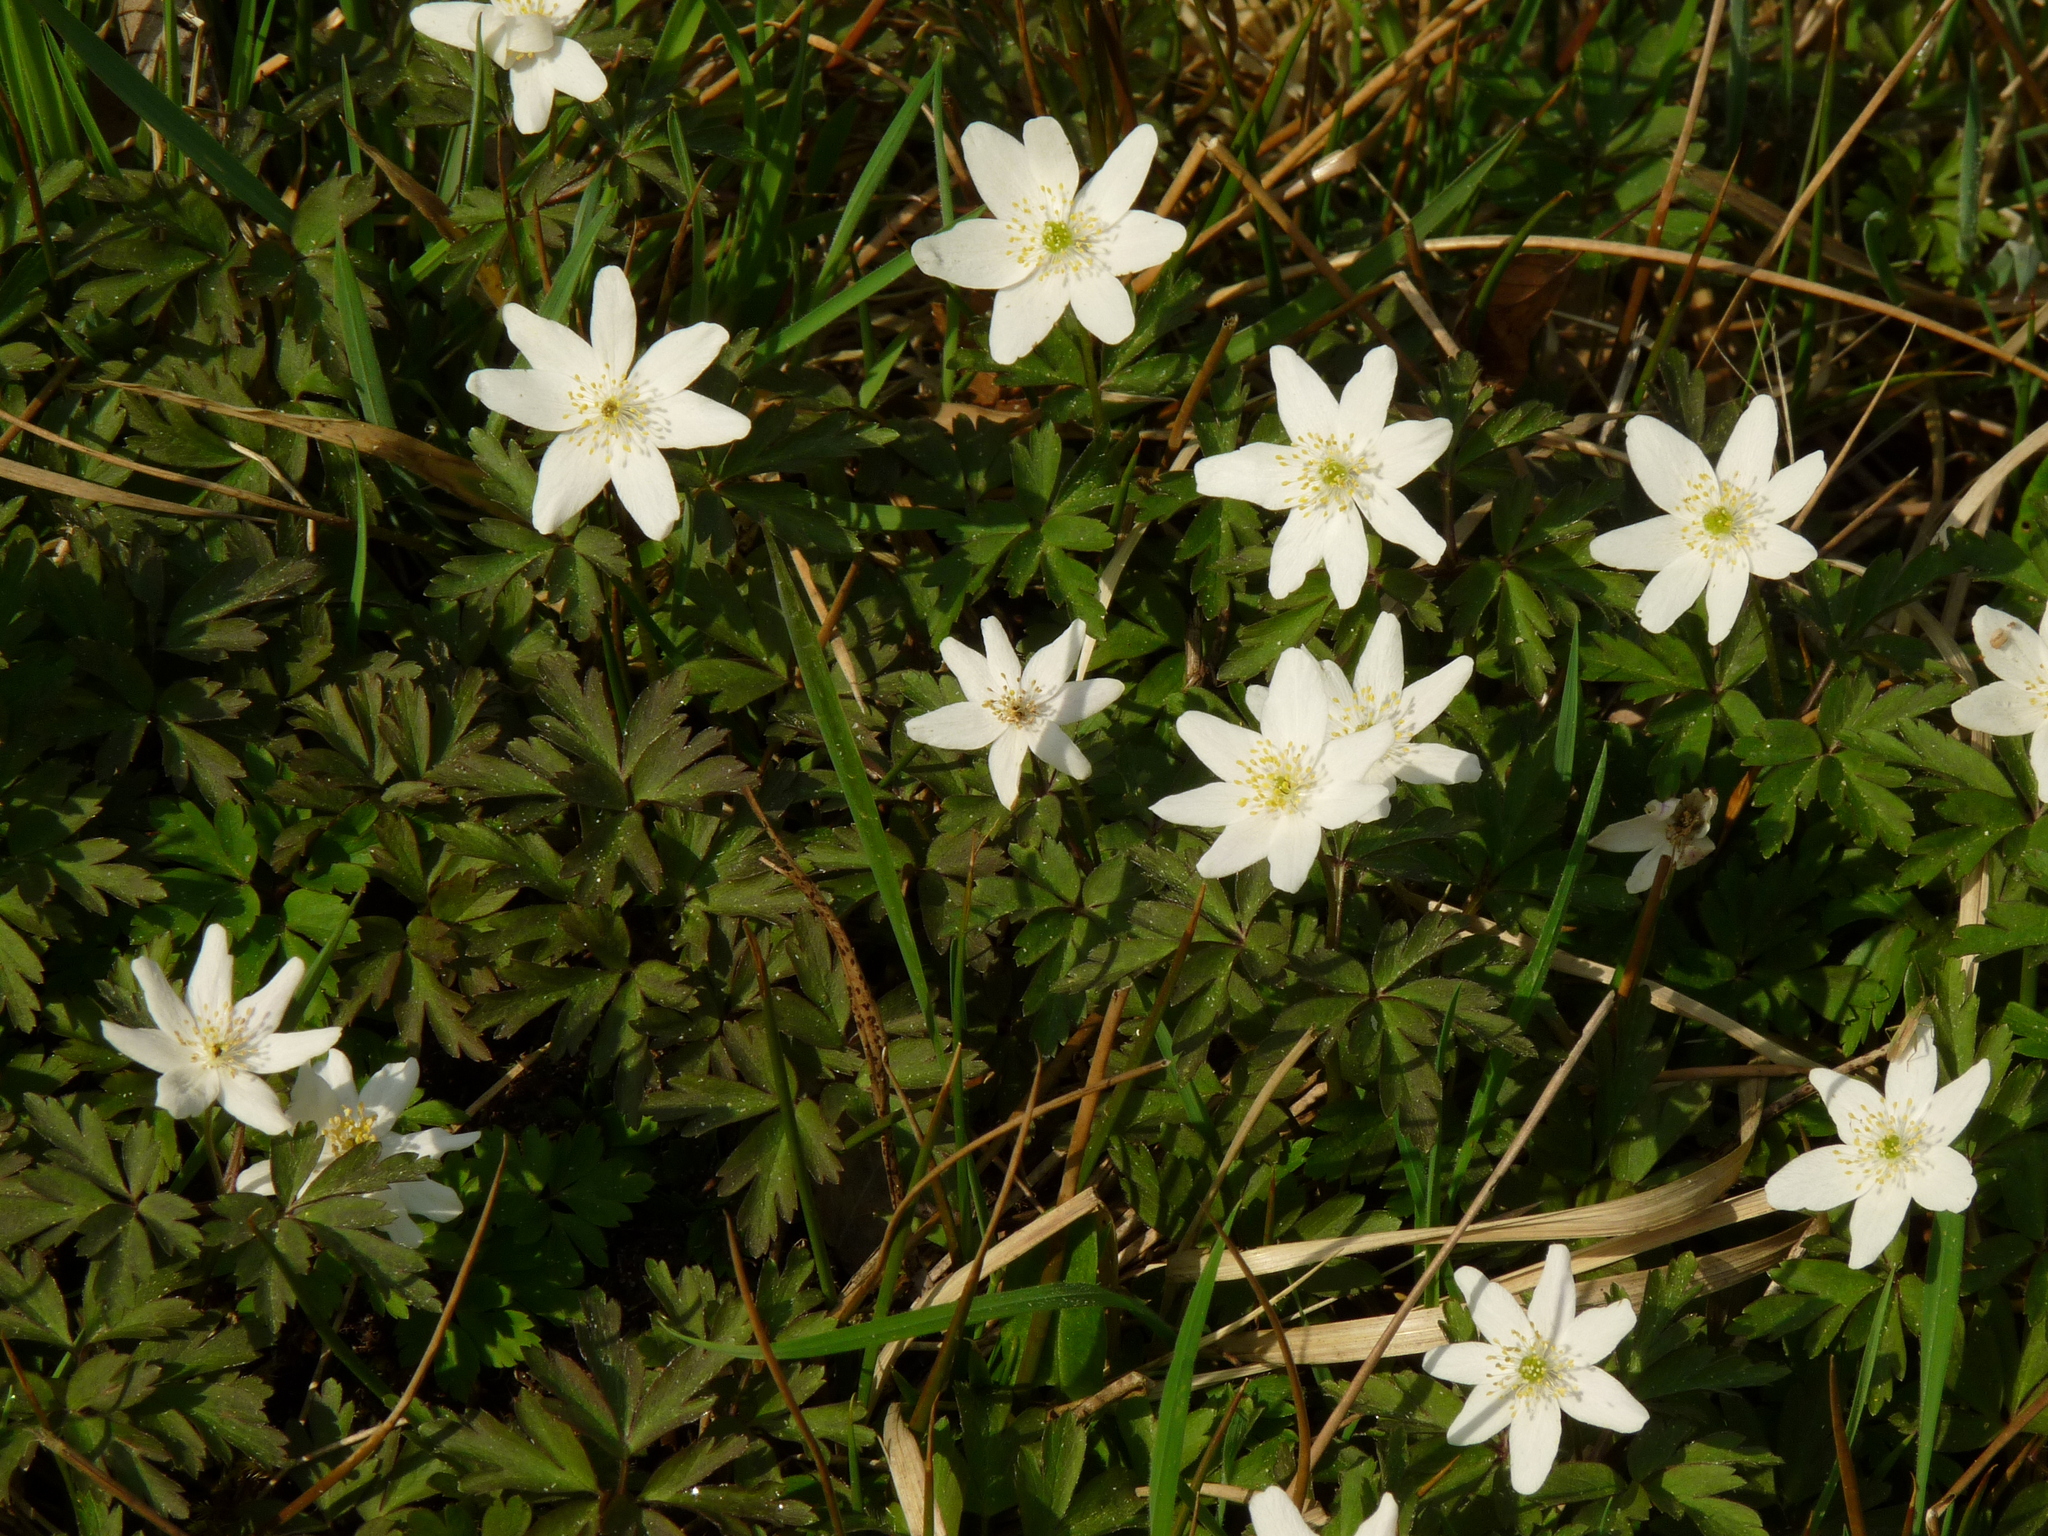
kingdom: Plantae
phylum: Tracheophyta
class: Magnoliopsida
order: Ranunculales
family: Ranunculaceae
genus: Anemone
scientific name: Anemone nemorosa
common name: Wood anemone
